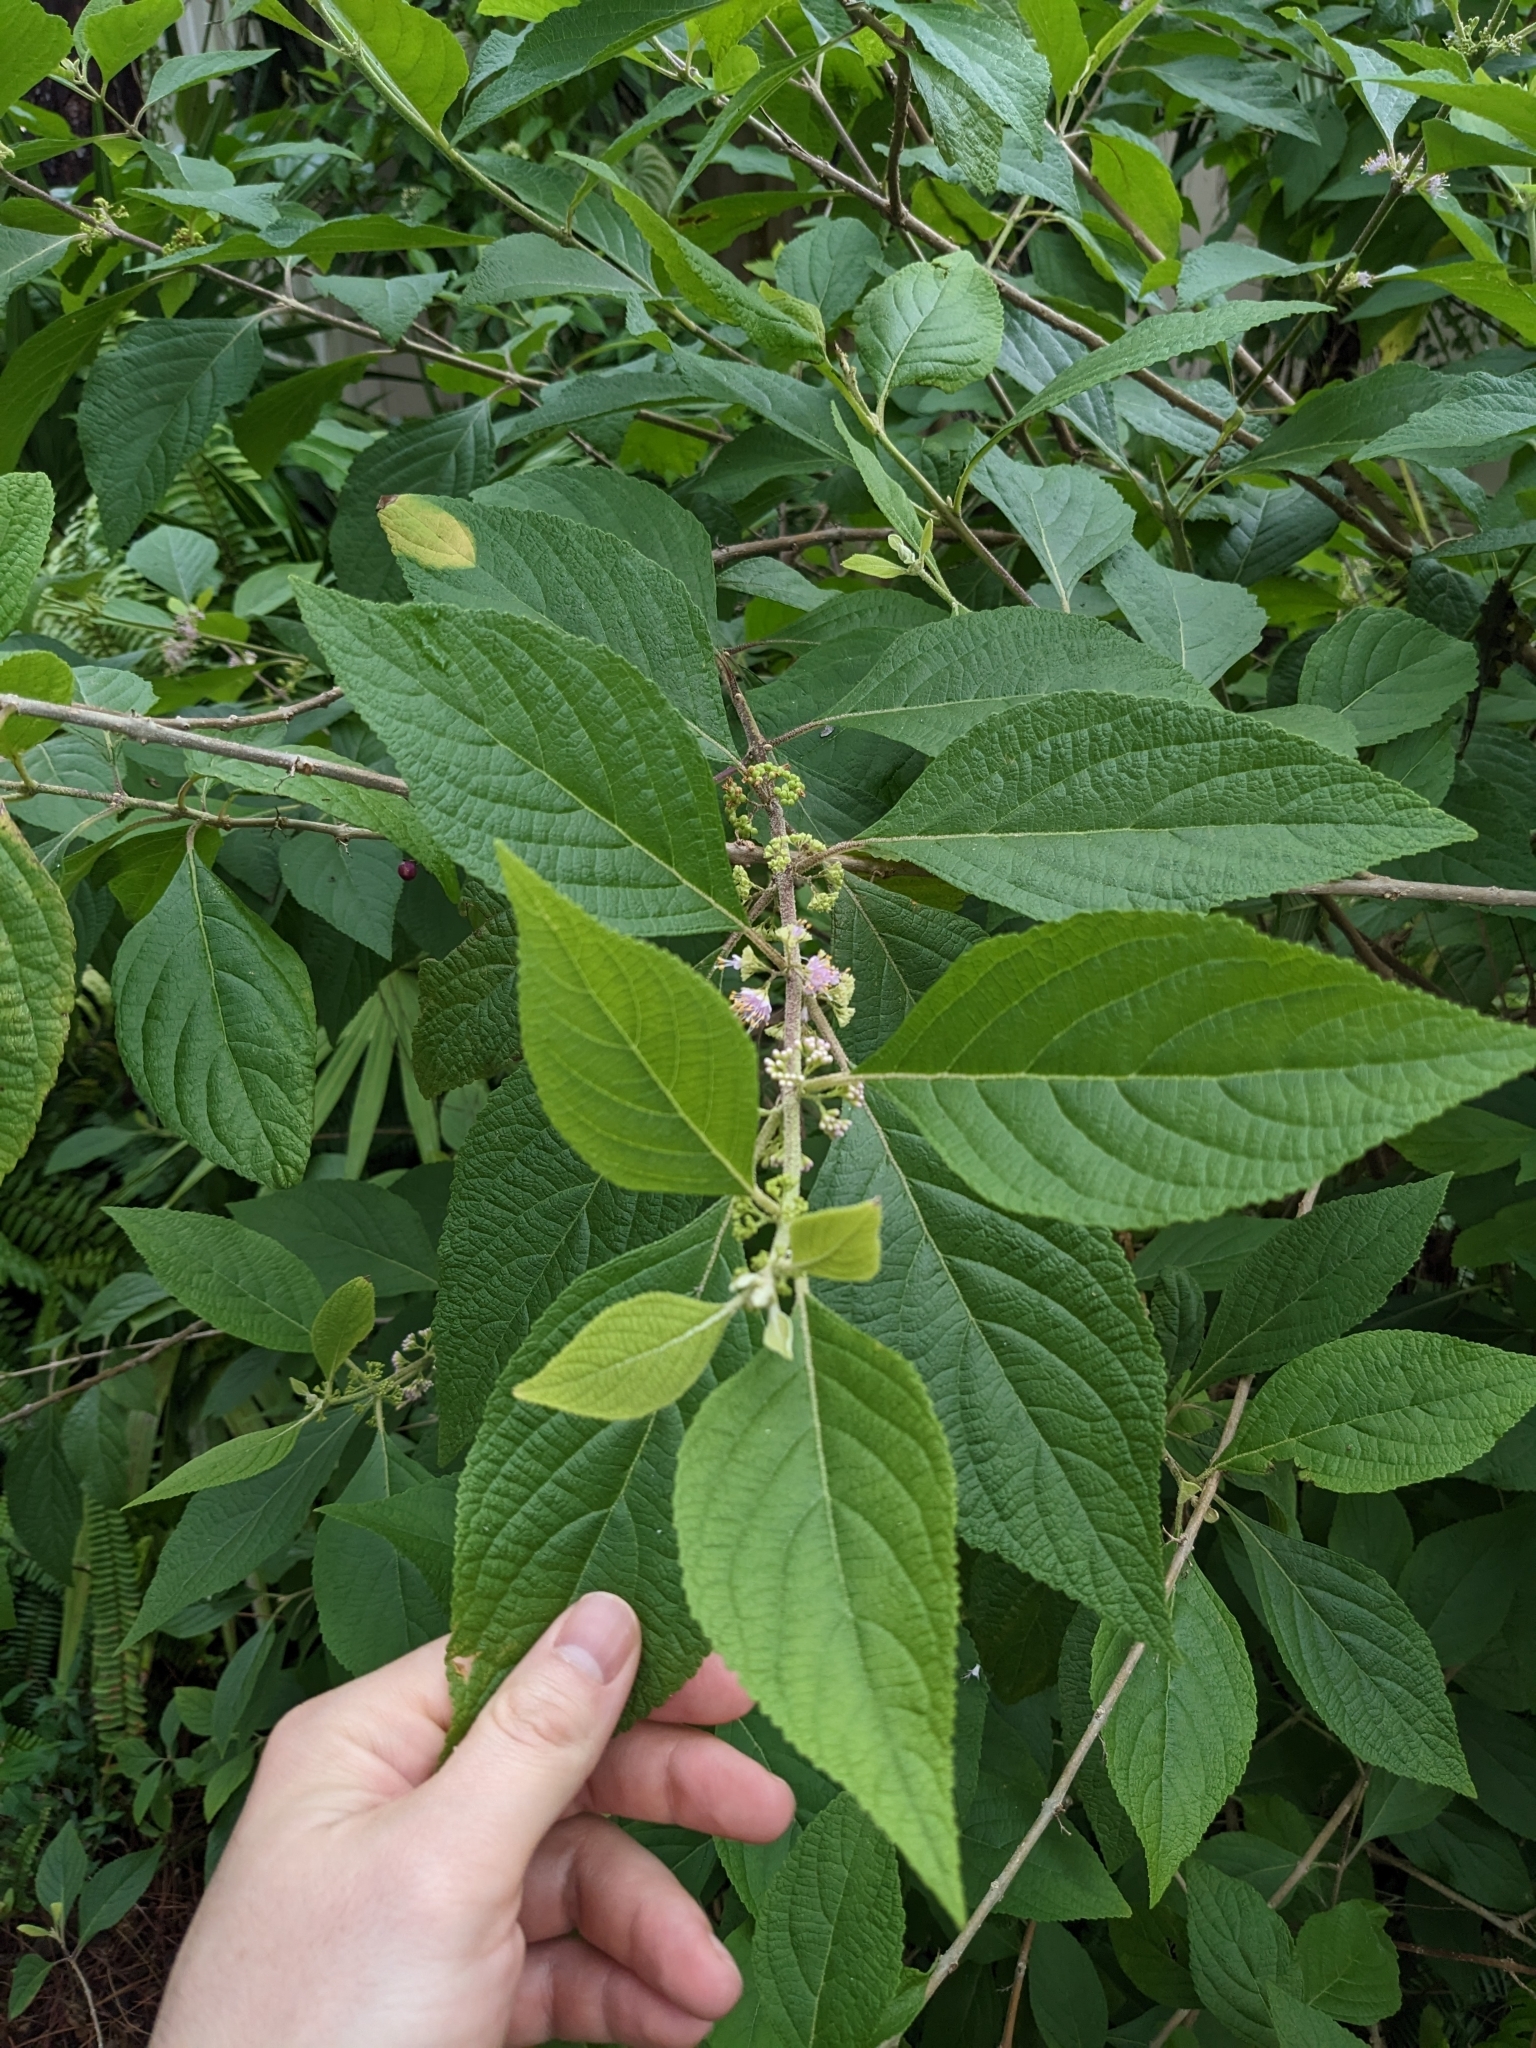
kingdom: Plantae
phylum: Tracheophyta
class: Magnoliopsida
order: Lamiales
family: Lamiaceae
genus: Callicarpa
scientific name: Callicarpa americana
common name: American beautyberry
